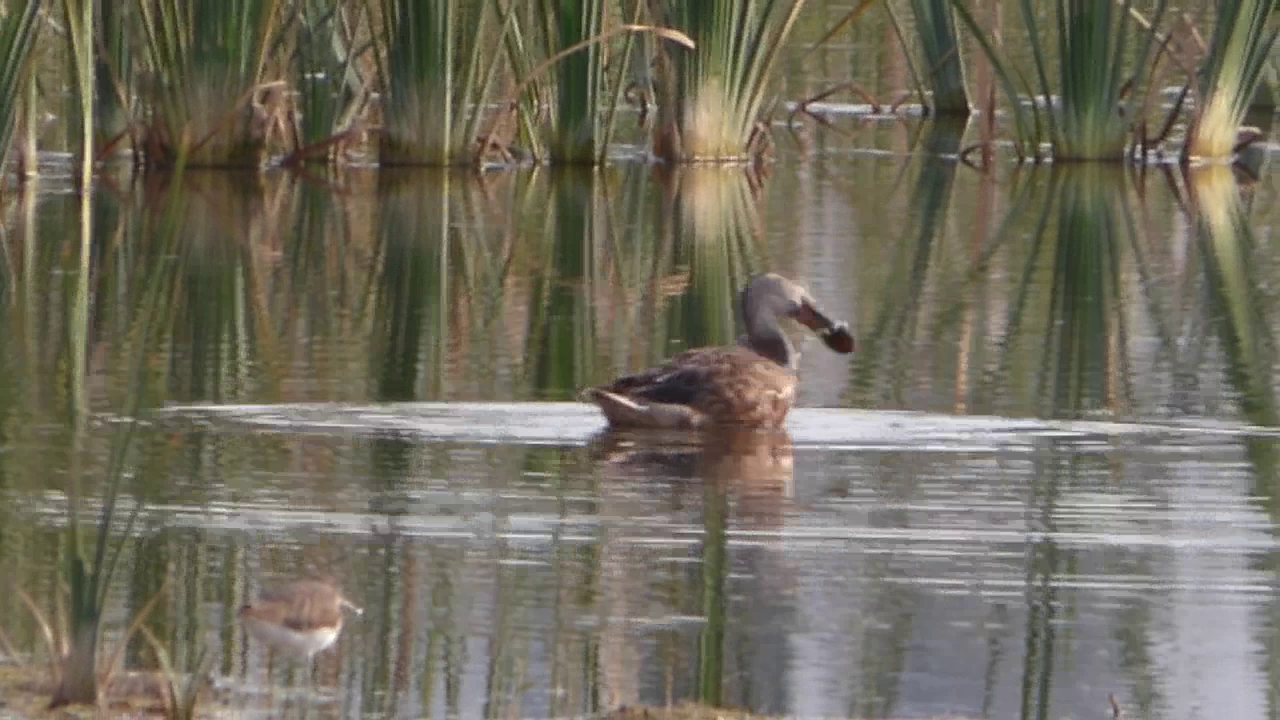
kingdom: Animalia
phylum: Chordata
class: Aves
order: Anseriformes
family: Anatidae
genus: Spatula
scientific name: Spatula clypeata
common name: Northern shoveler
